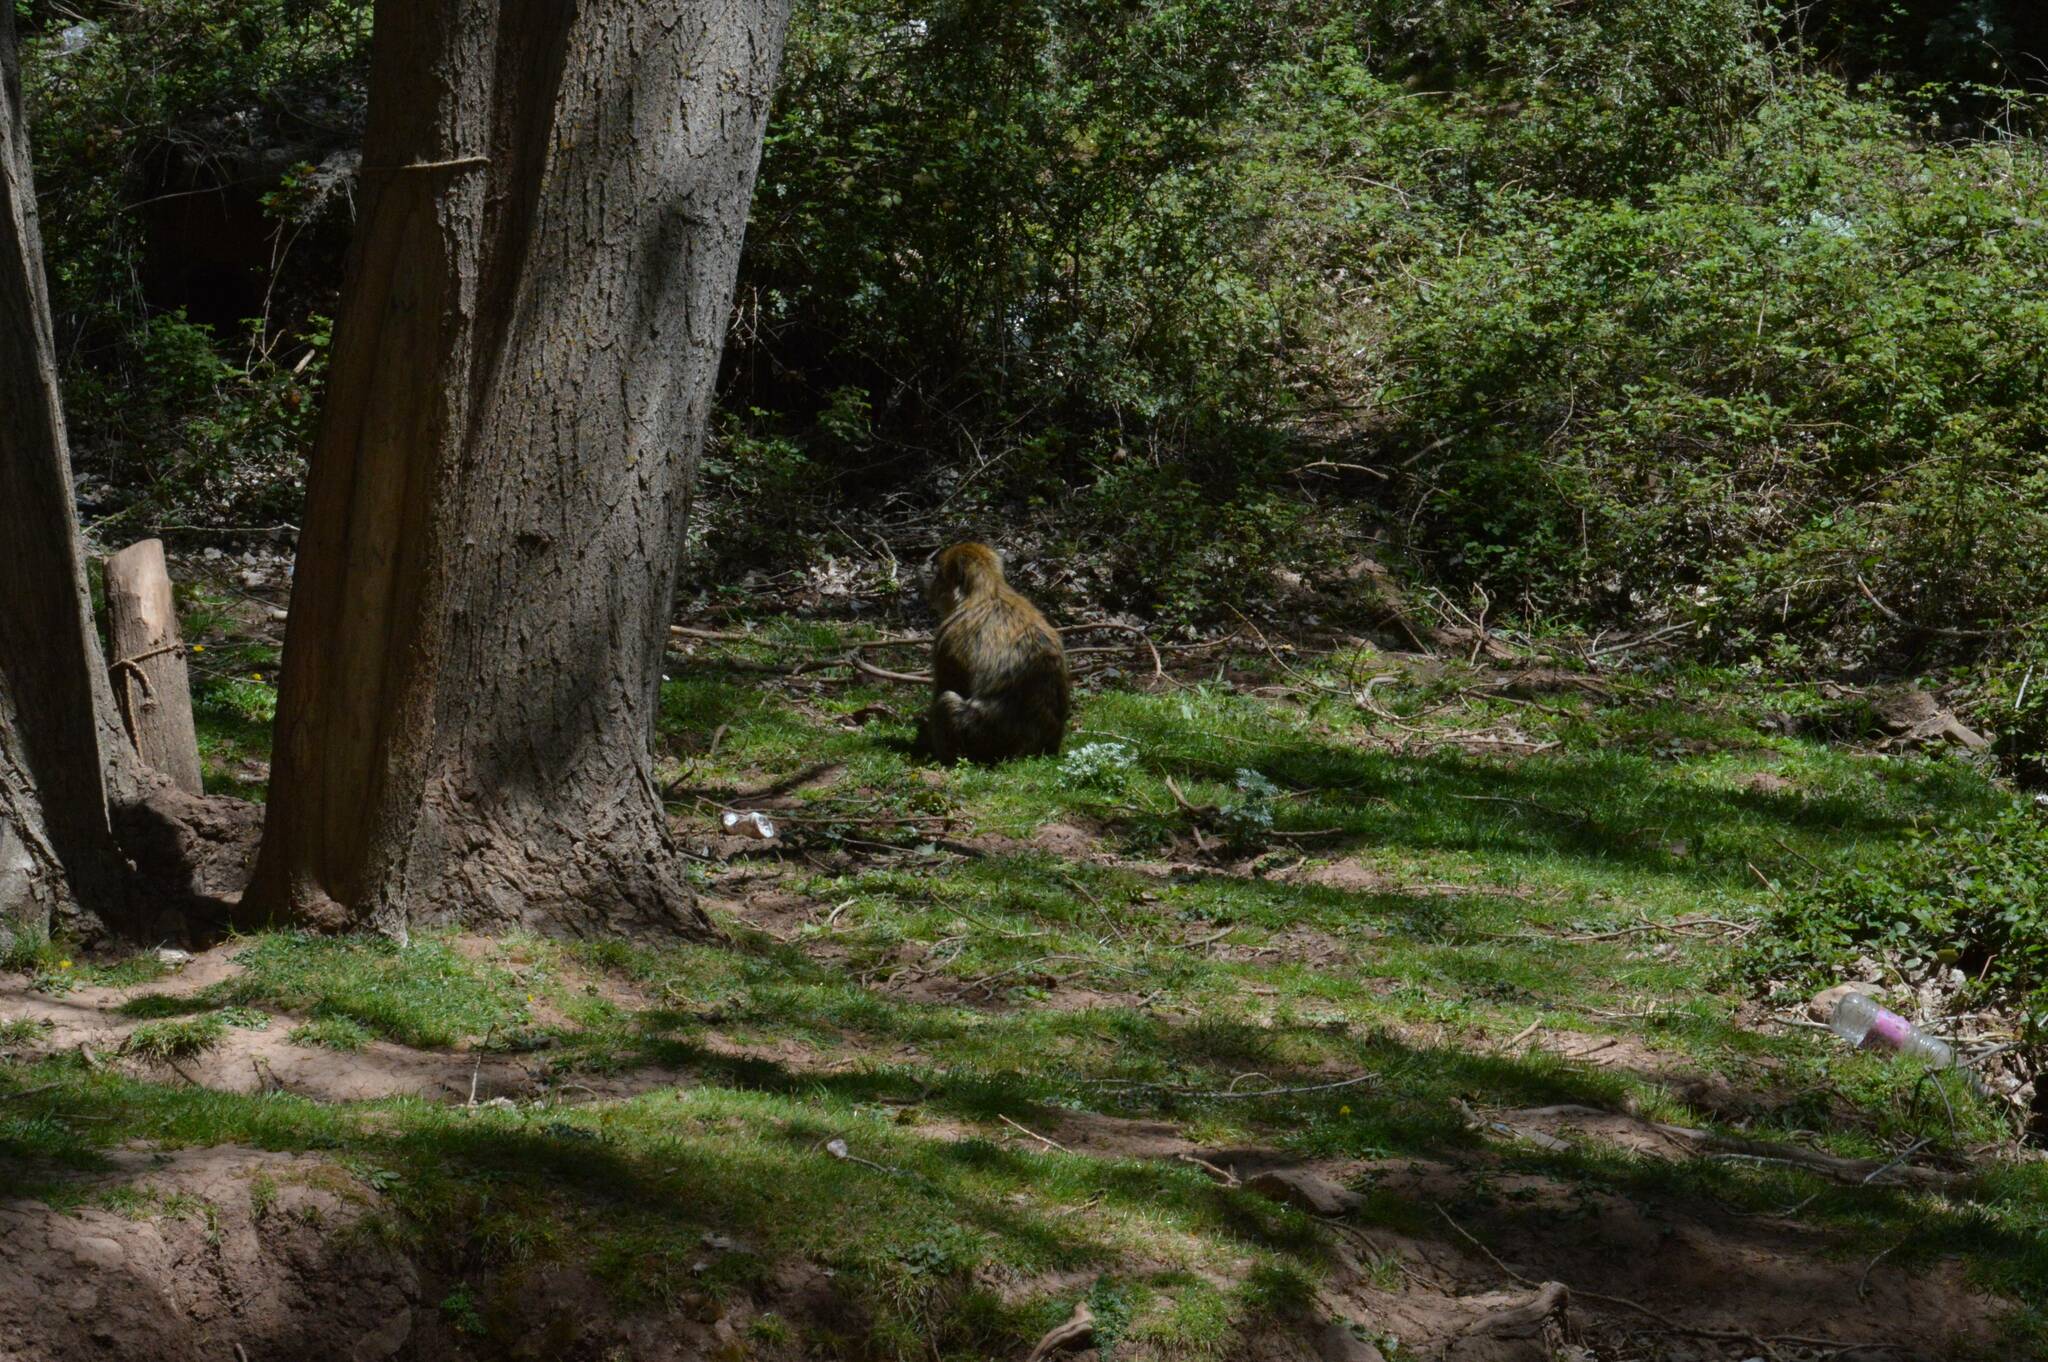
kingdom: Animalia
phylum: Chordata
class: Mammalia
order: Primates
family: Cercopithecidae
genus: Macaca
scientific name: Macaca sylvanus
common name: Barbary macaque
